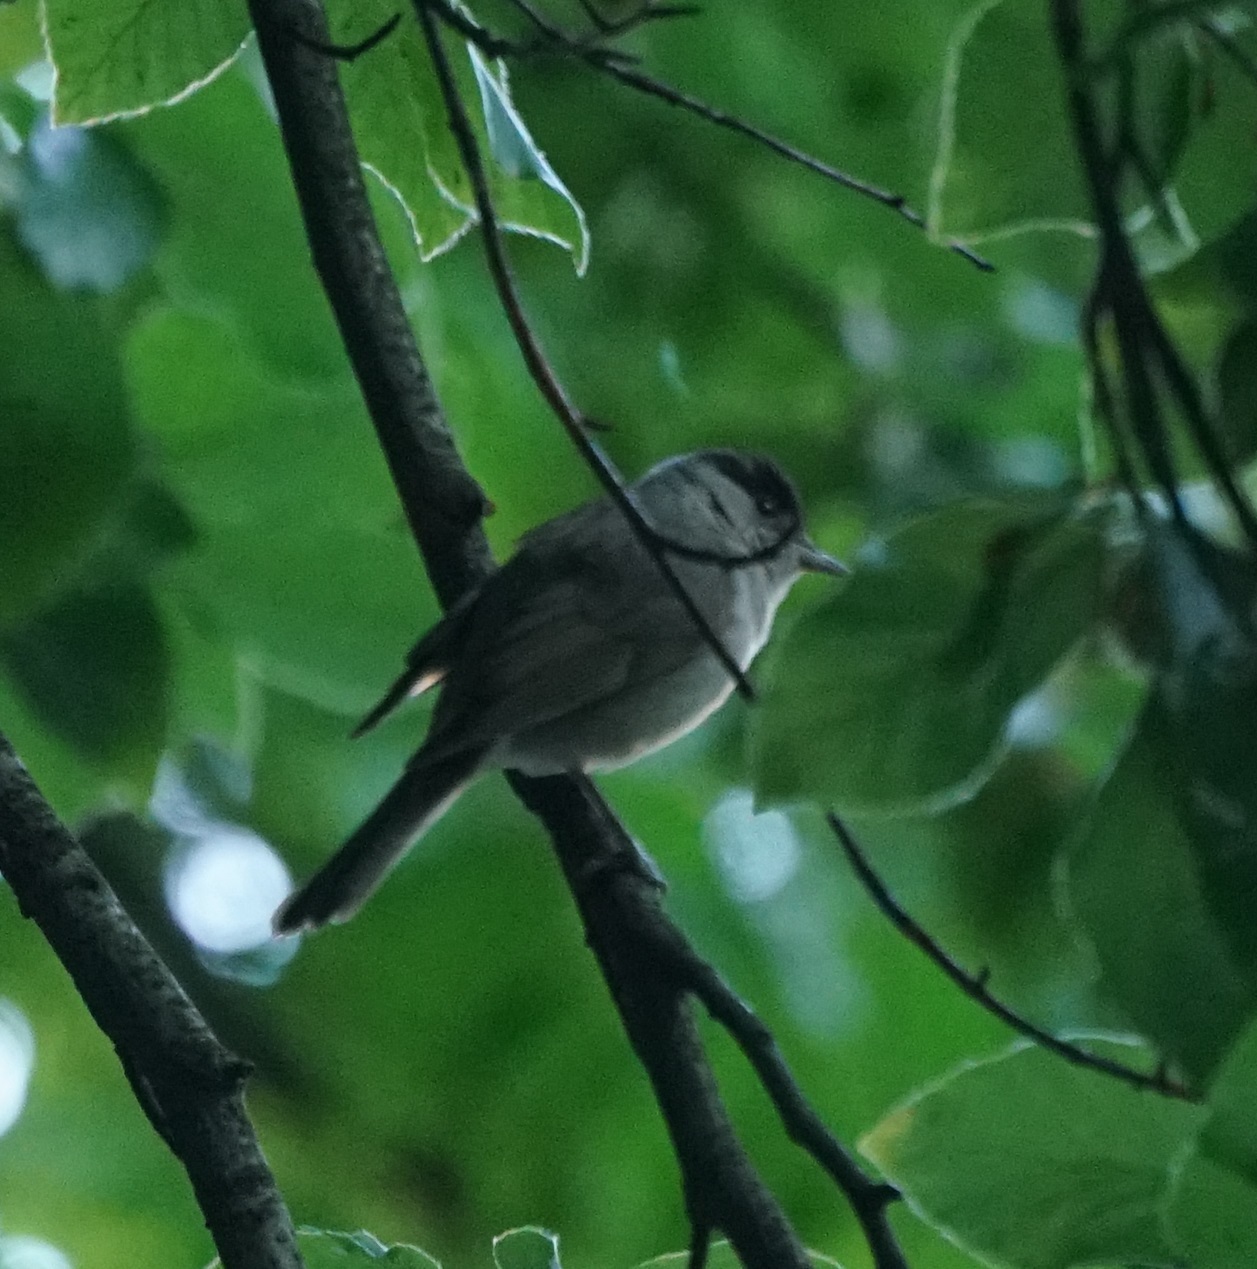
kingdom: Animalia
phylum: Chordata
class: Aves
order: Passeriformes
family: Sylviidae
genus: Sylvia
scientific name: Sylvia atricapilla
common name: Eurasian blackcap
